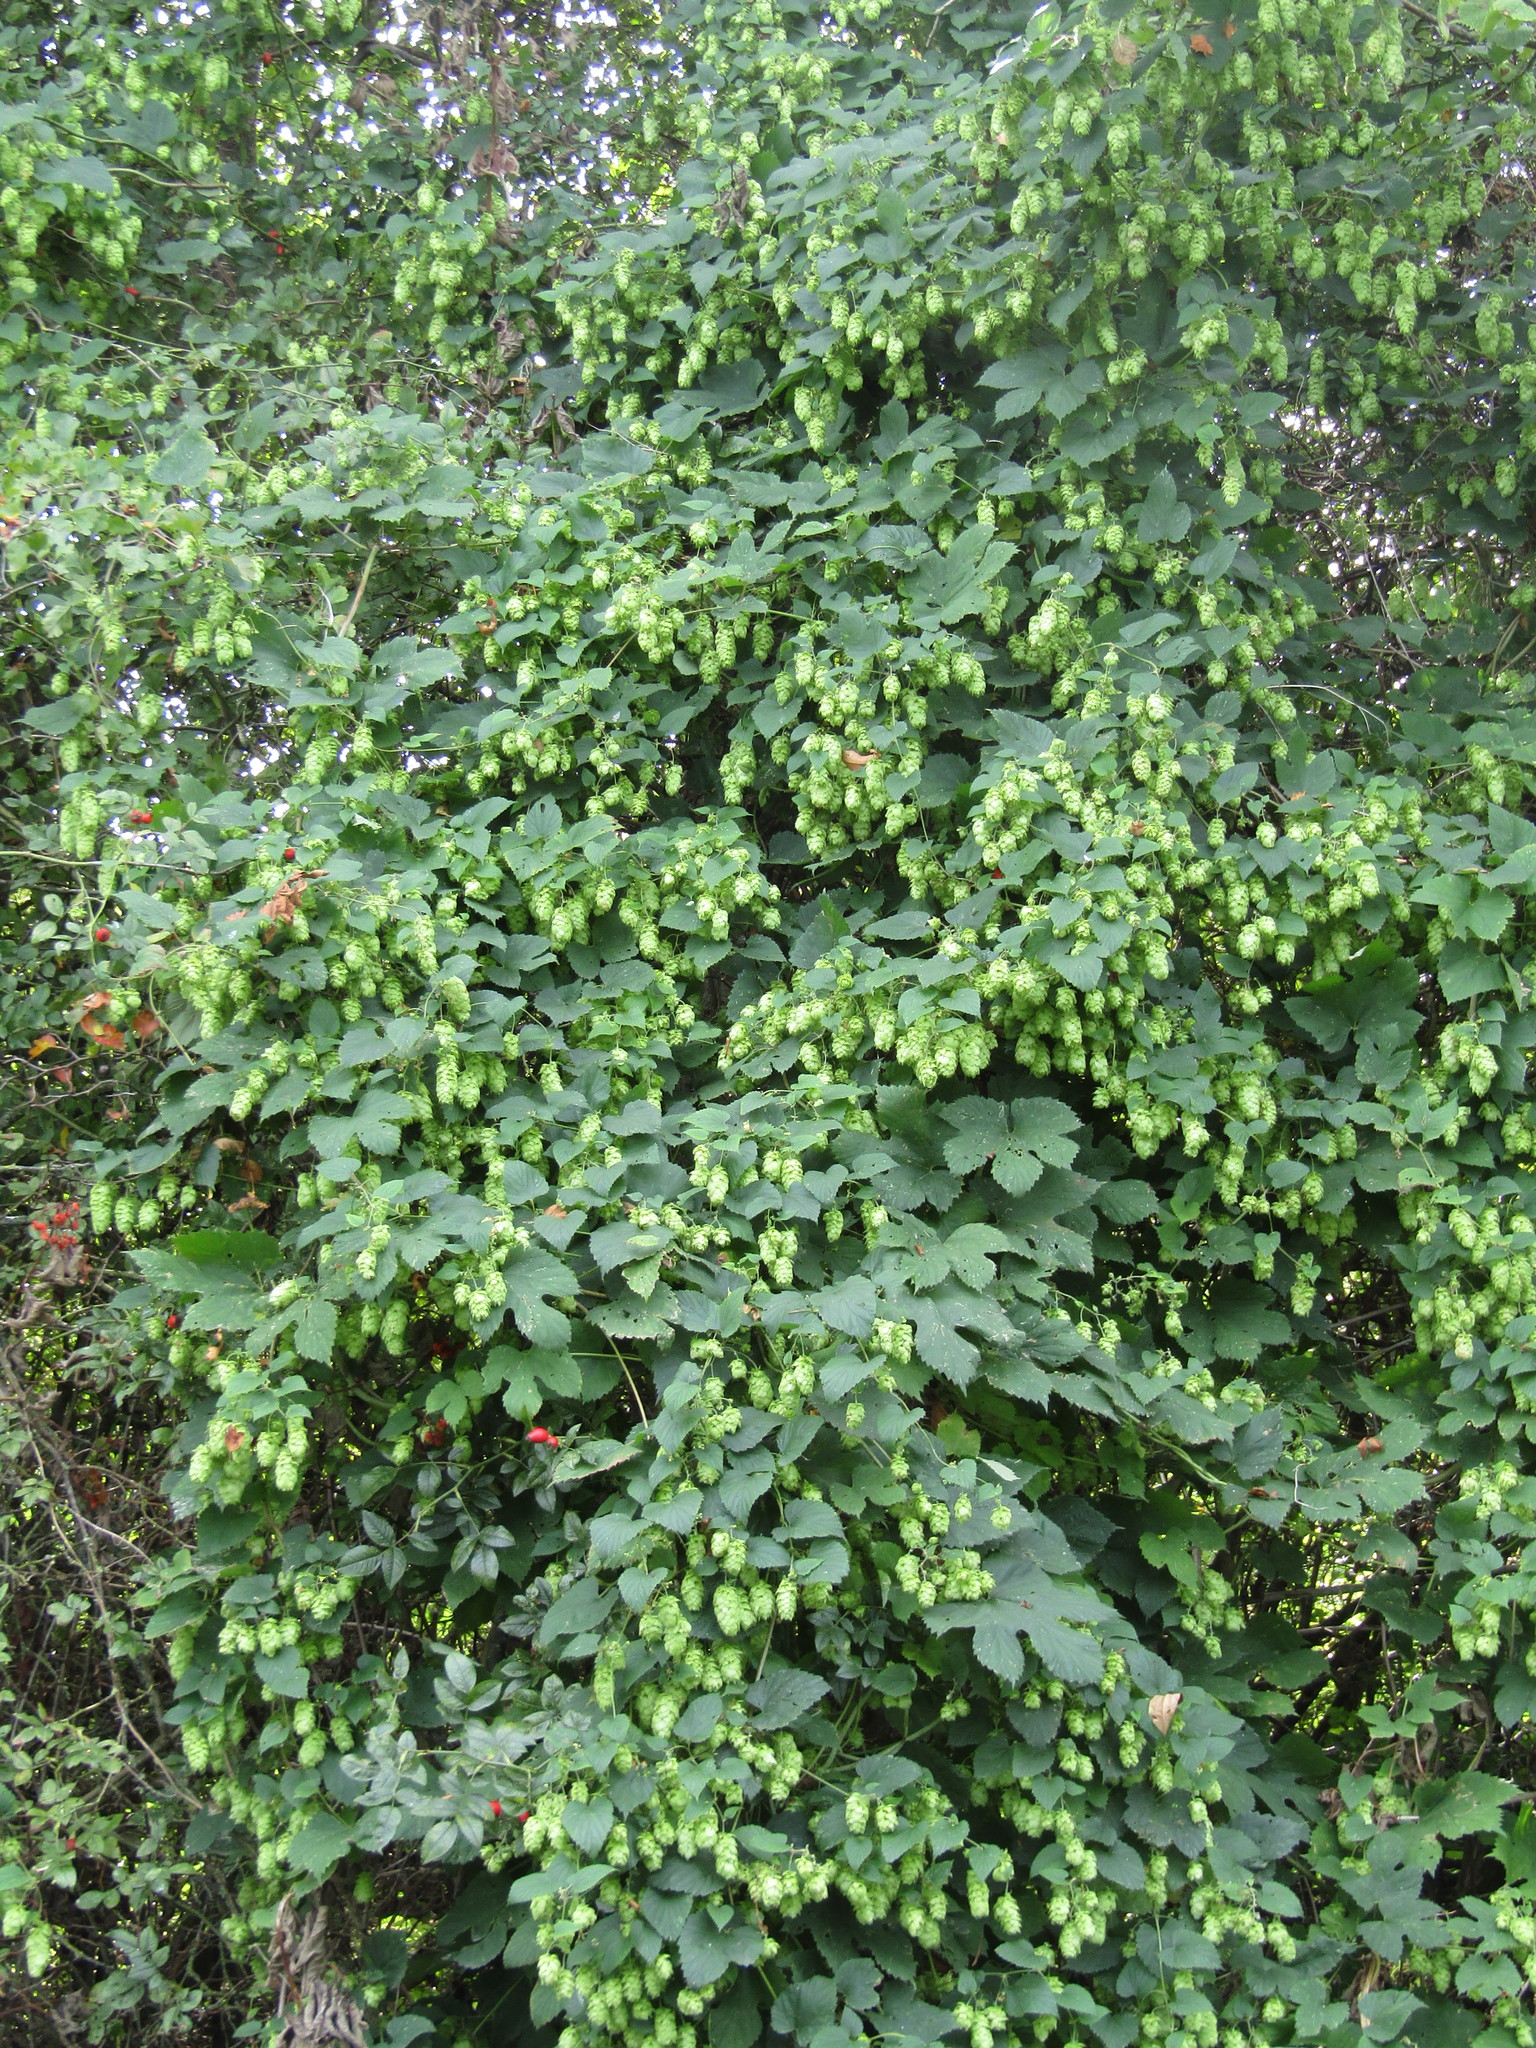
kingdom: Plantae
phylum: Tracheophyta
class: Magnoliopsida
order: Rosales
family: Cannabaceae
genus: Humulus
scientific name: Humulus lupulus
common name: Hop
